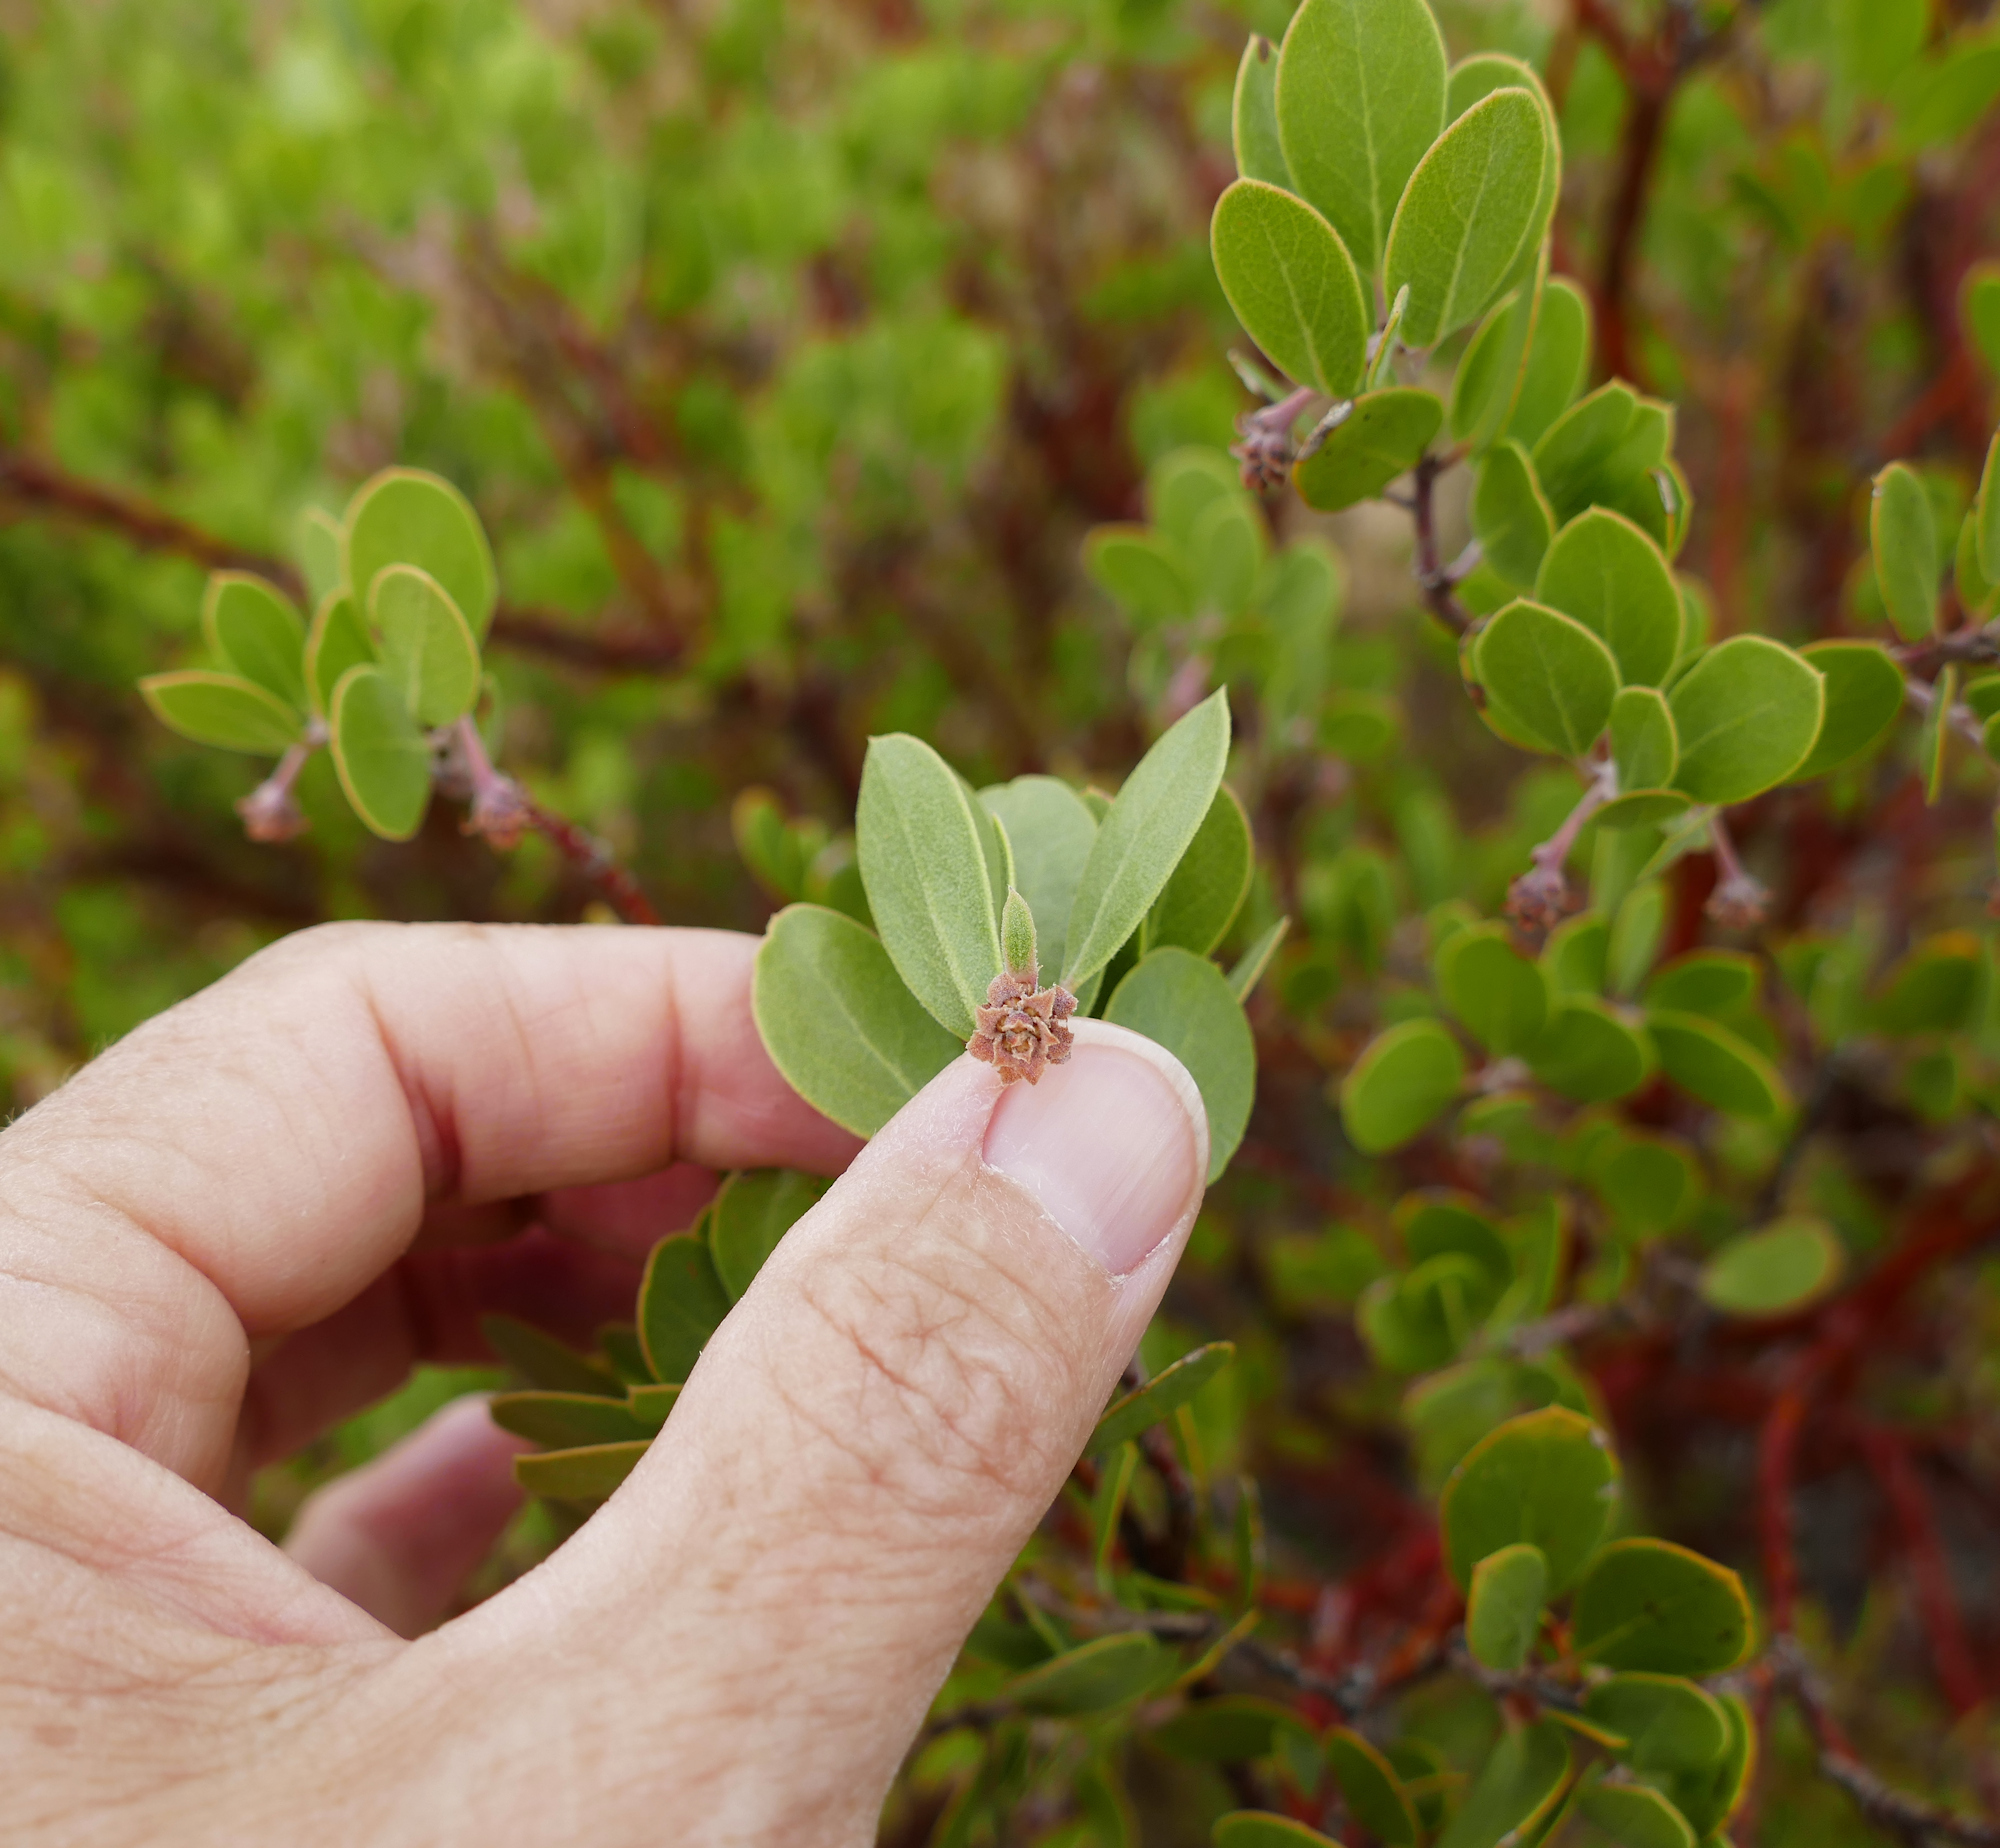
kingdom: Plantae
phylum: Tracheophyta
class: Magnoliopsida
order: Ericales
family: Ericaceae
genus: Arctostaphylos
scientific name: Arctostaphylos pungens
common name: Mexican manzanita
